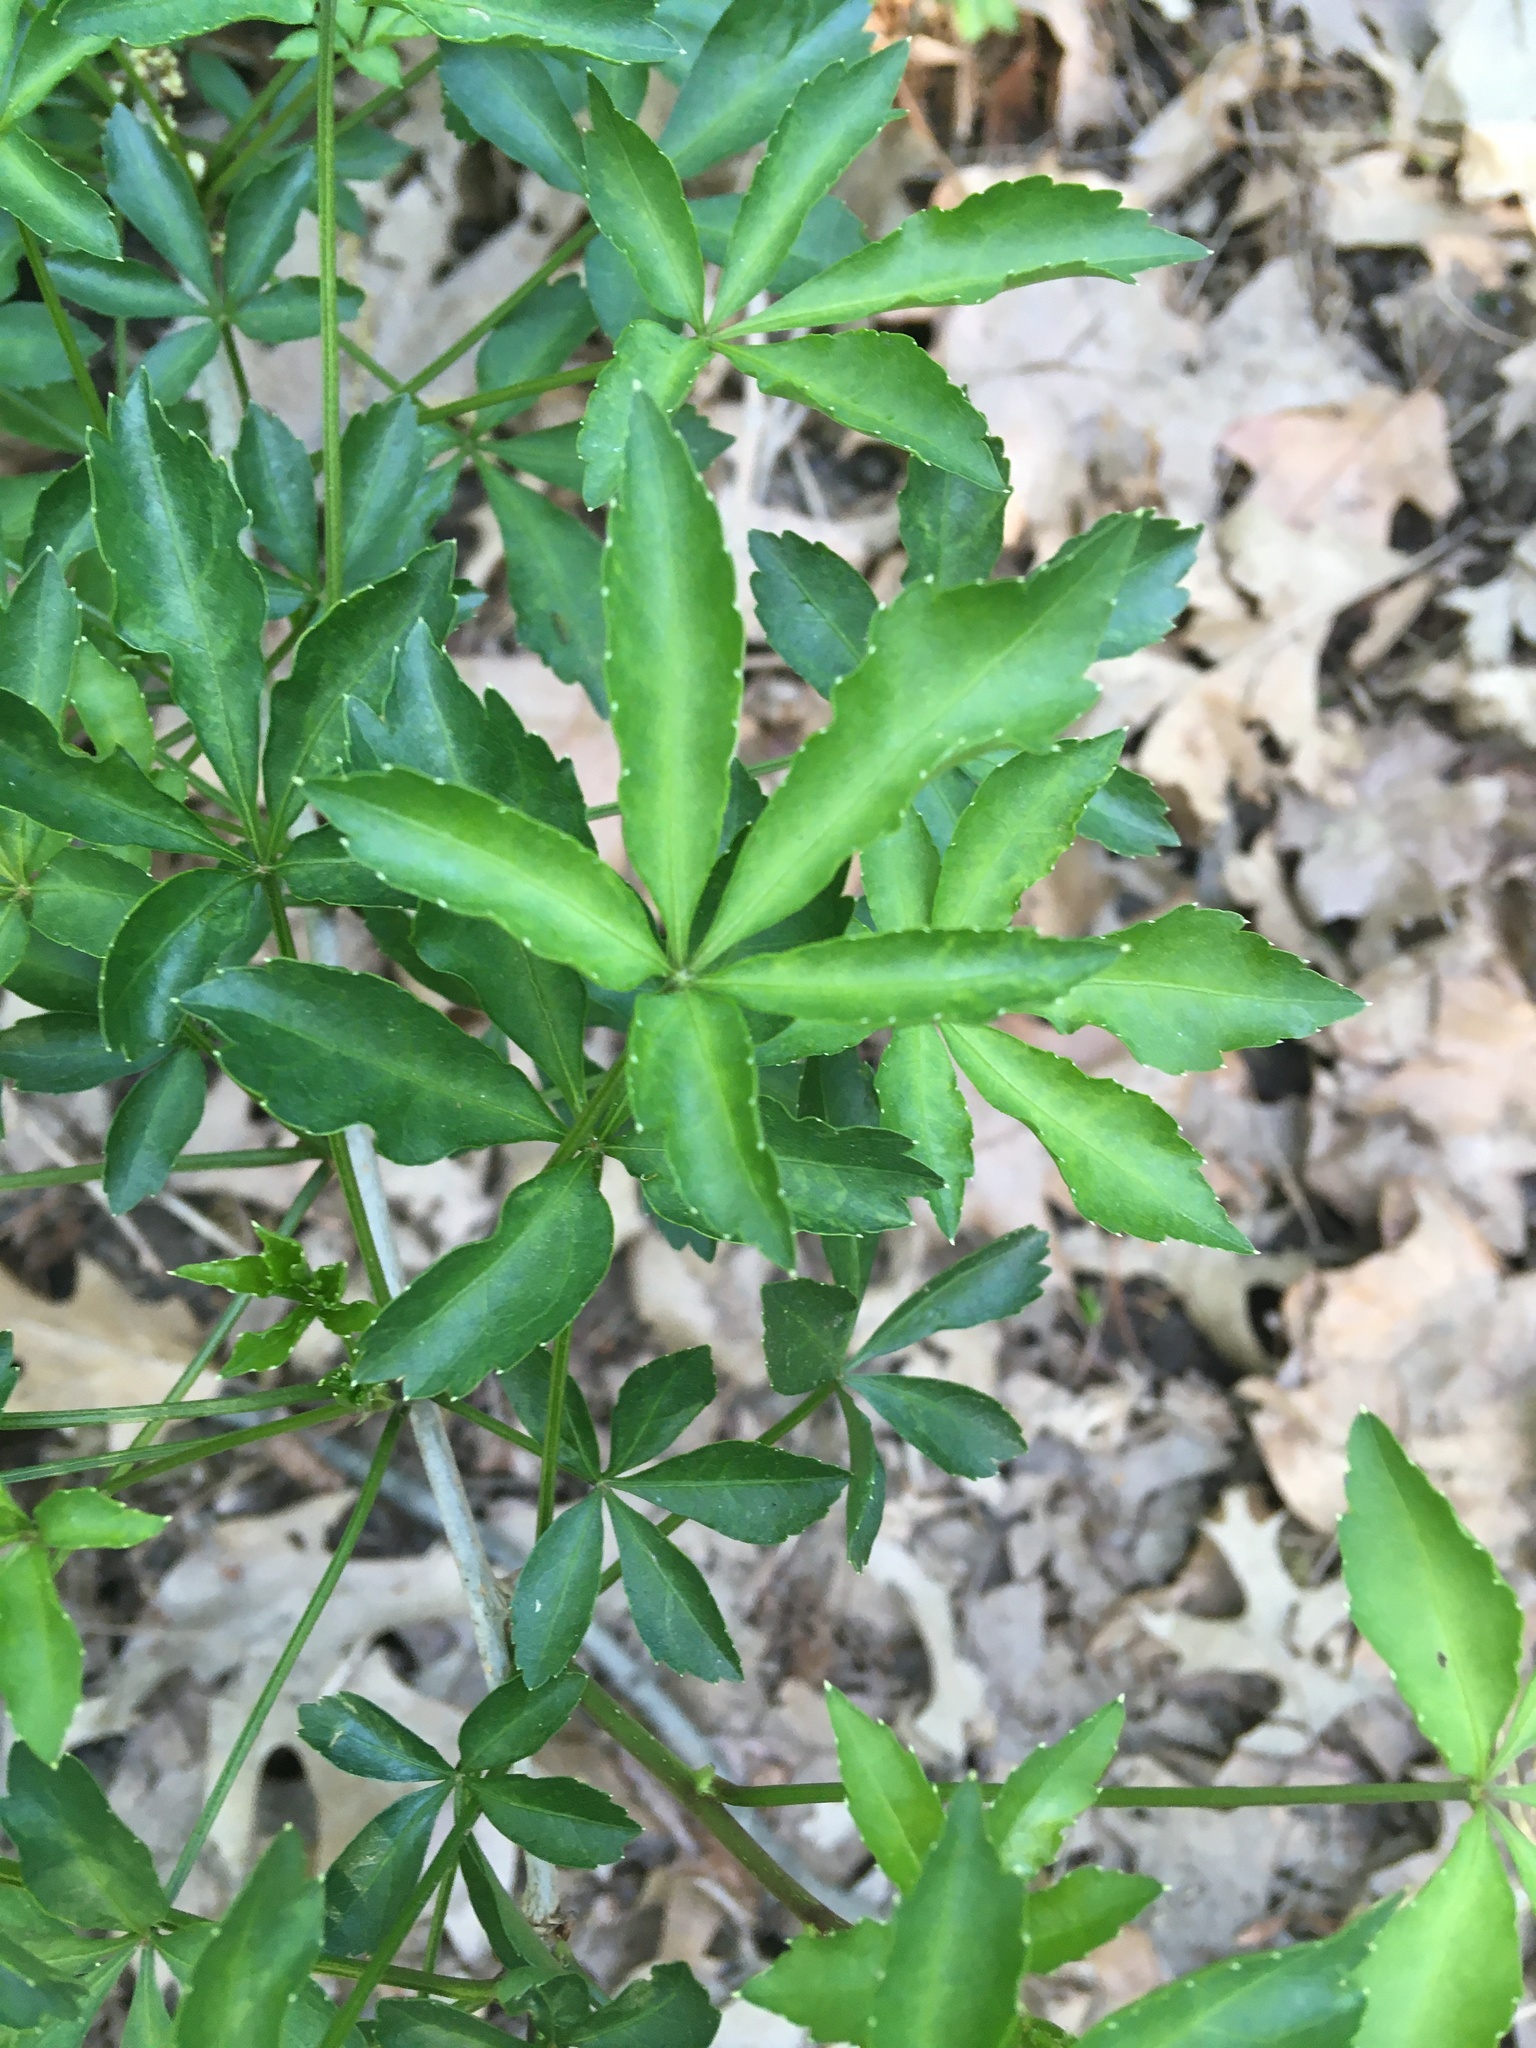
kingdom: Plantae
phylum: Tracheophyta
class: Magnoliopsida
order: Apiales
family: Araliaceae
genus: Eleutherococcus
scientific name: Eleutherococcus sieboldianus
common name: Ginseng
